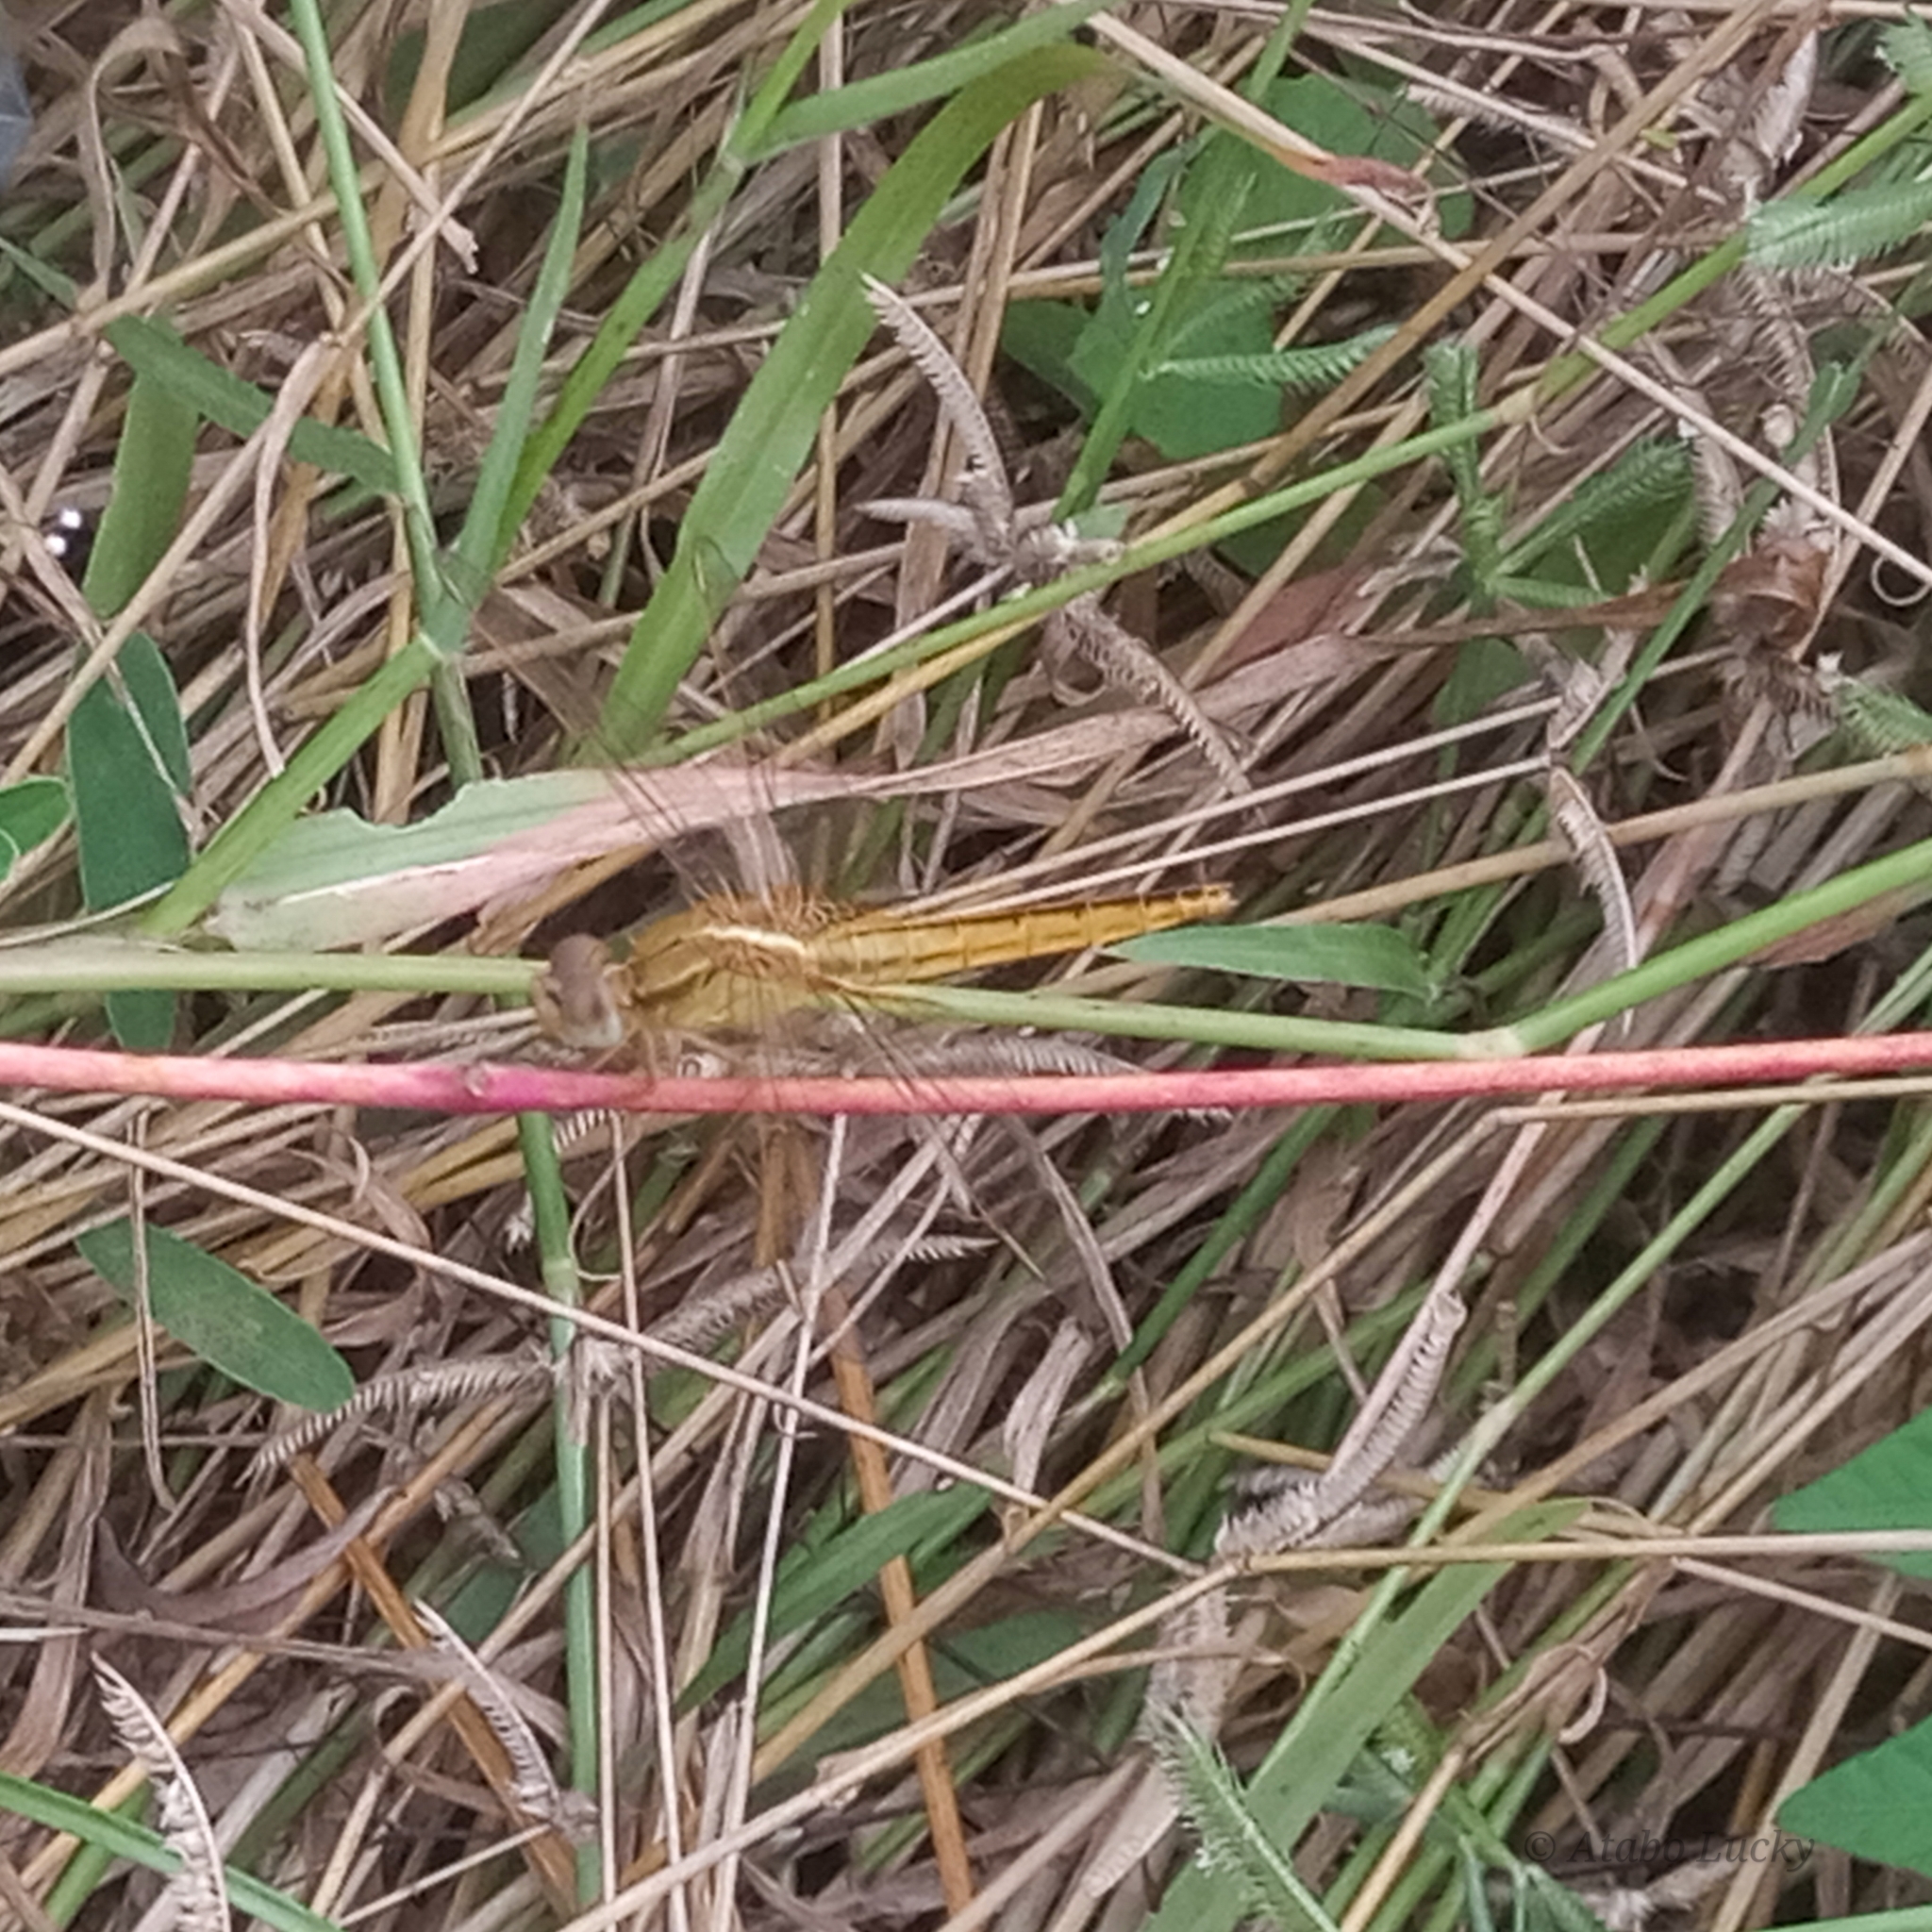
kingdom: Animalia
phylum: Arthropoda
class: Insecta
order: Odonata
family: Libellulidae
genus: Crocothemis
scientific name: Crocothemis erythraea
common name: Scarlet dragonfly
